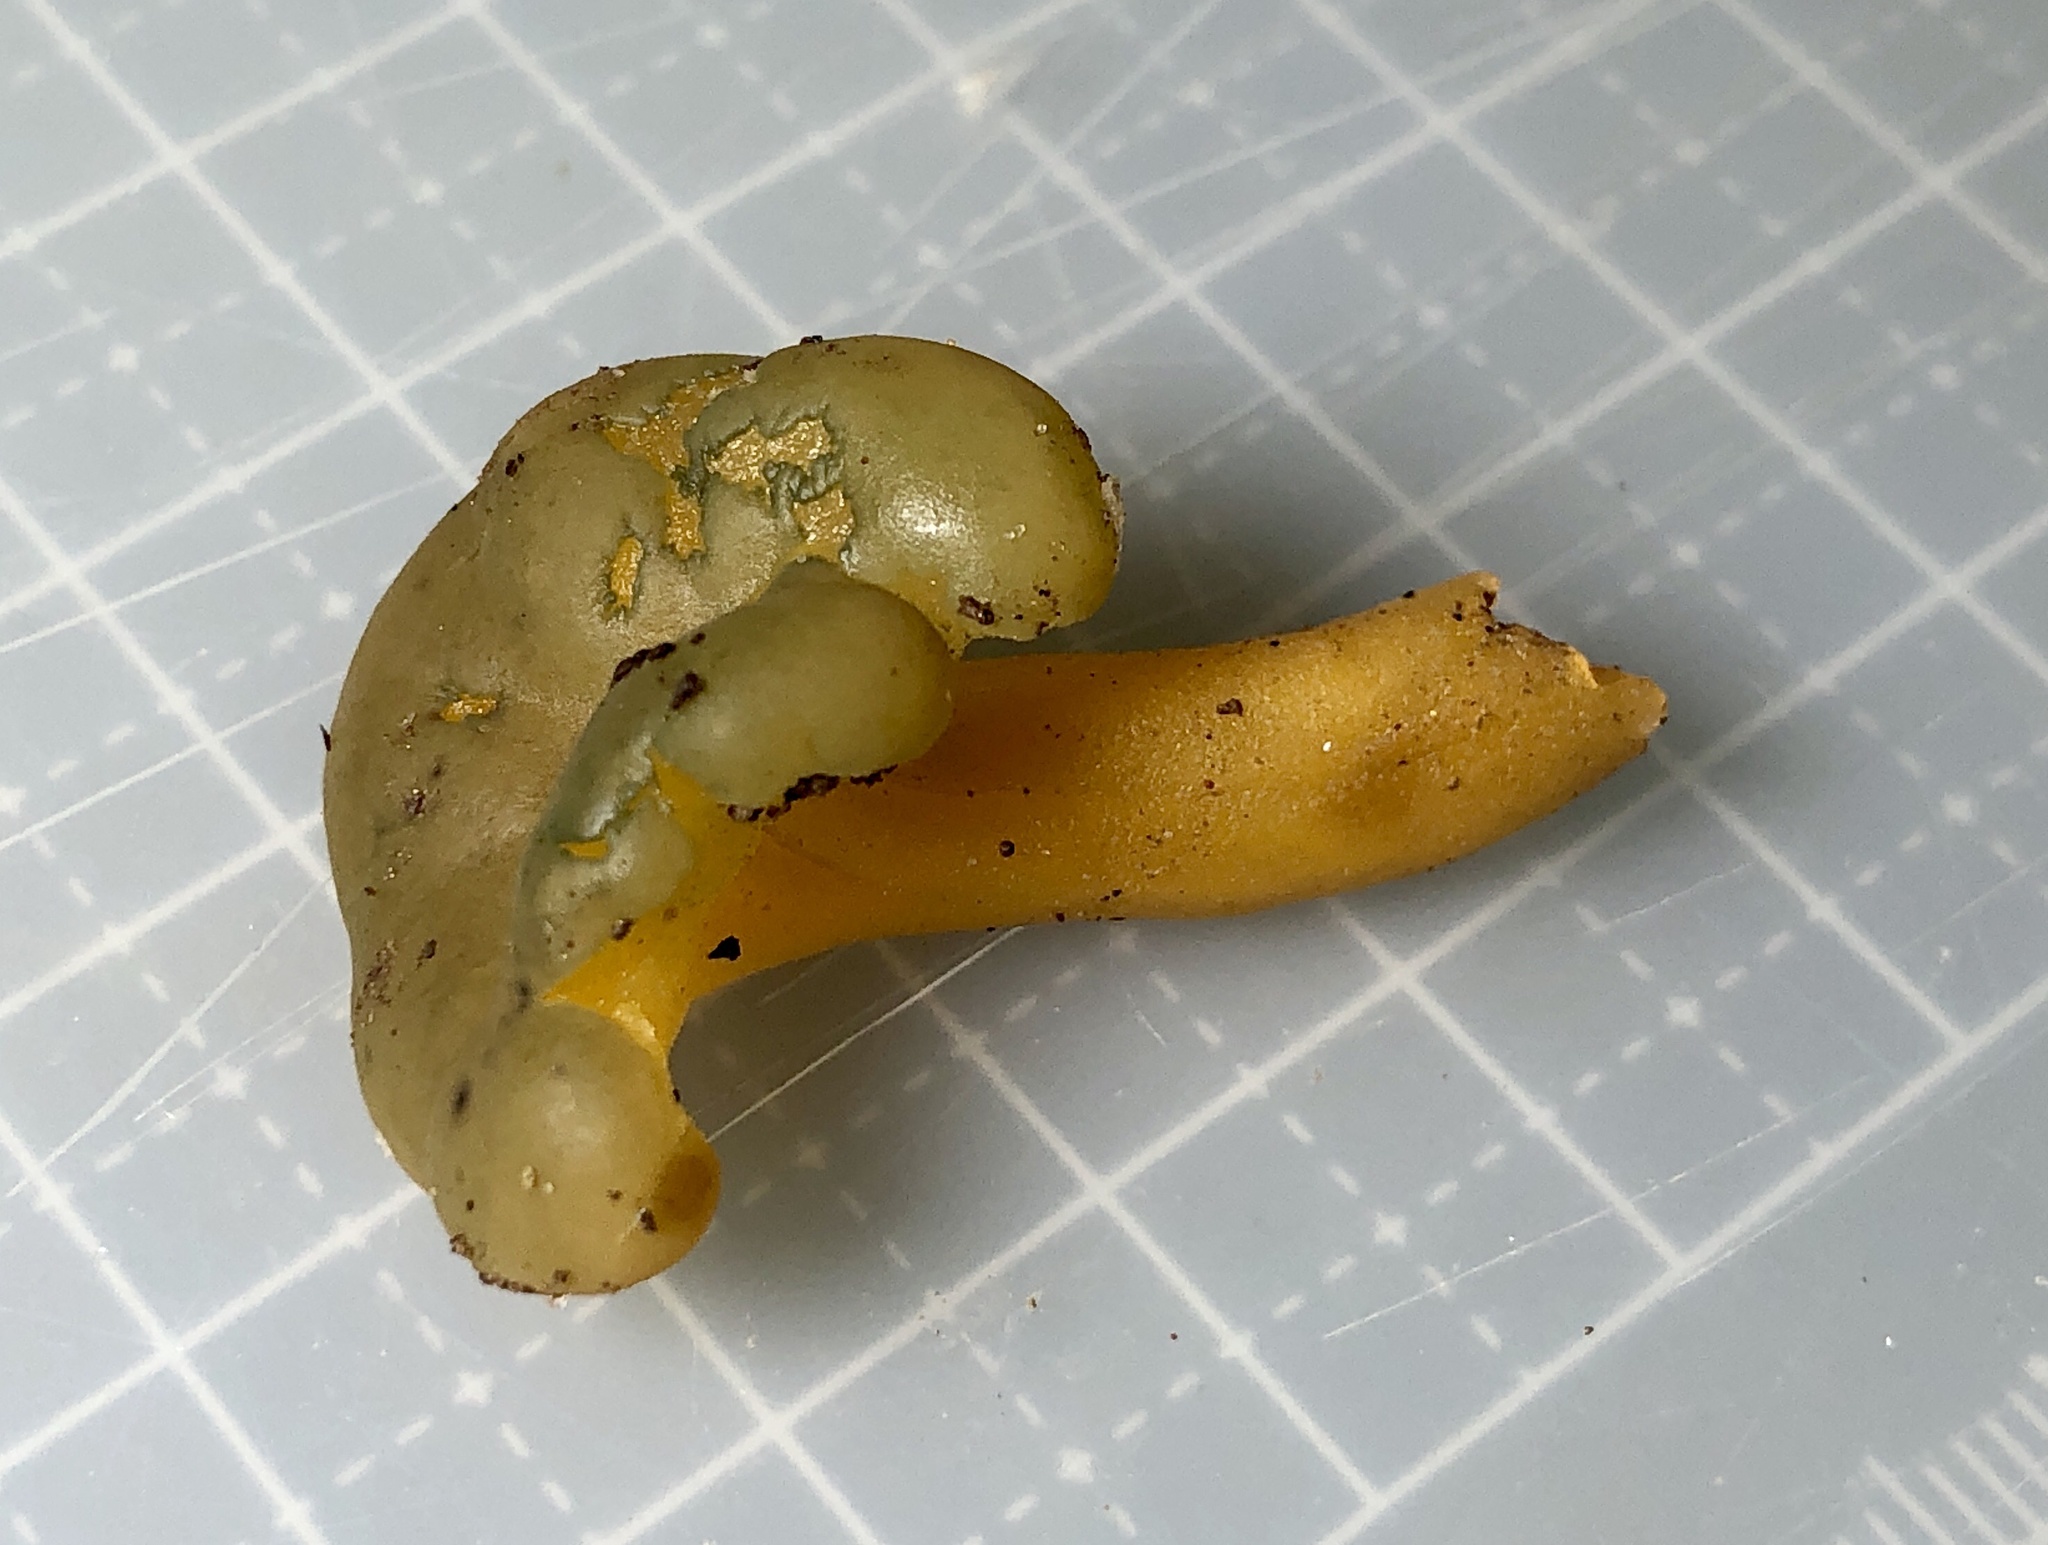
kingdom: Fungi
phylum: Ascomycota
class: Leotiomycetes
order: Leotiales
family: Leotiaceae
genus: Leotia
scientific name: Leotia lubrica
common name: Jellybaby
